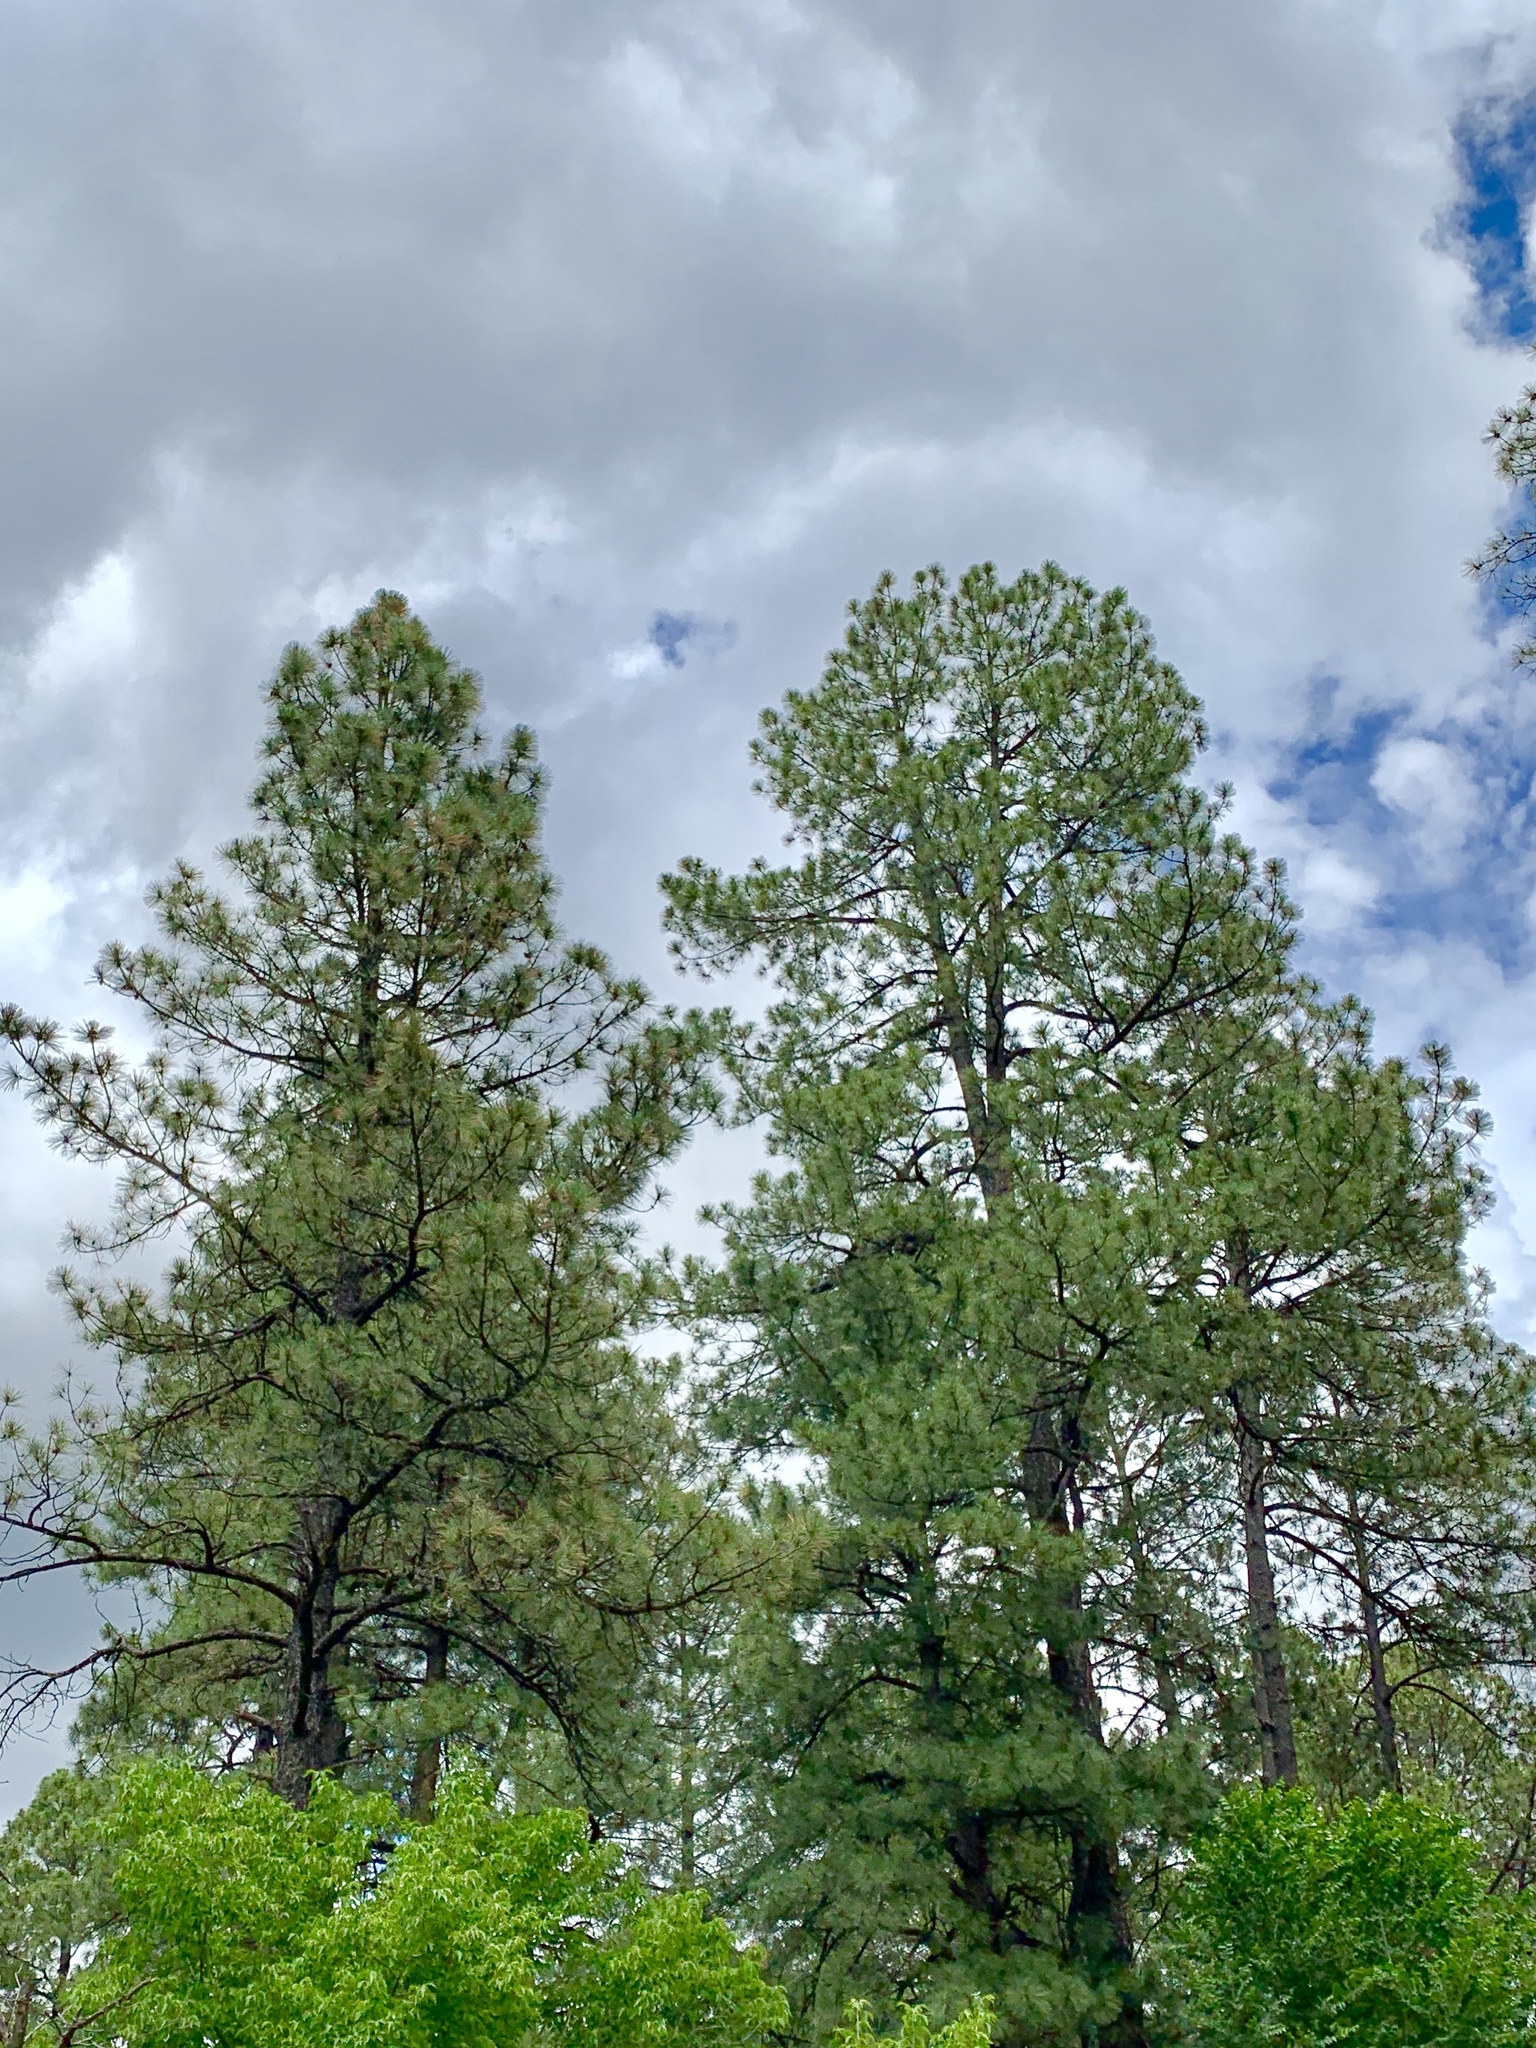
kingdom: Plantae
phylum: Tracheophyta
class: Pinopsida
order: Pinales
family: Pinaceae
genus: Pinus
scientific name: Pinus ponderosa
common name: Western yellow-pine
